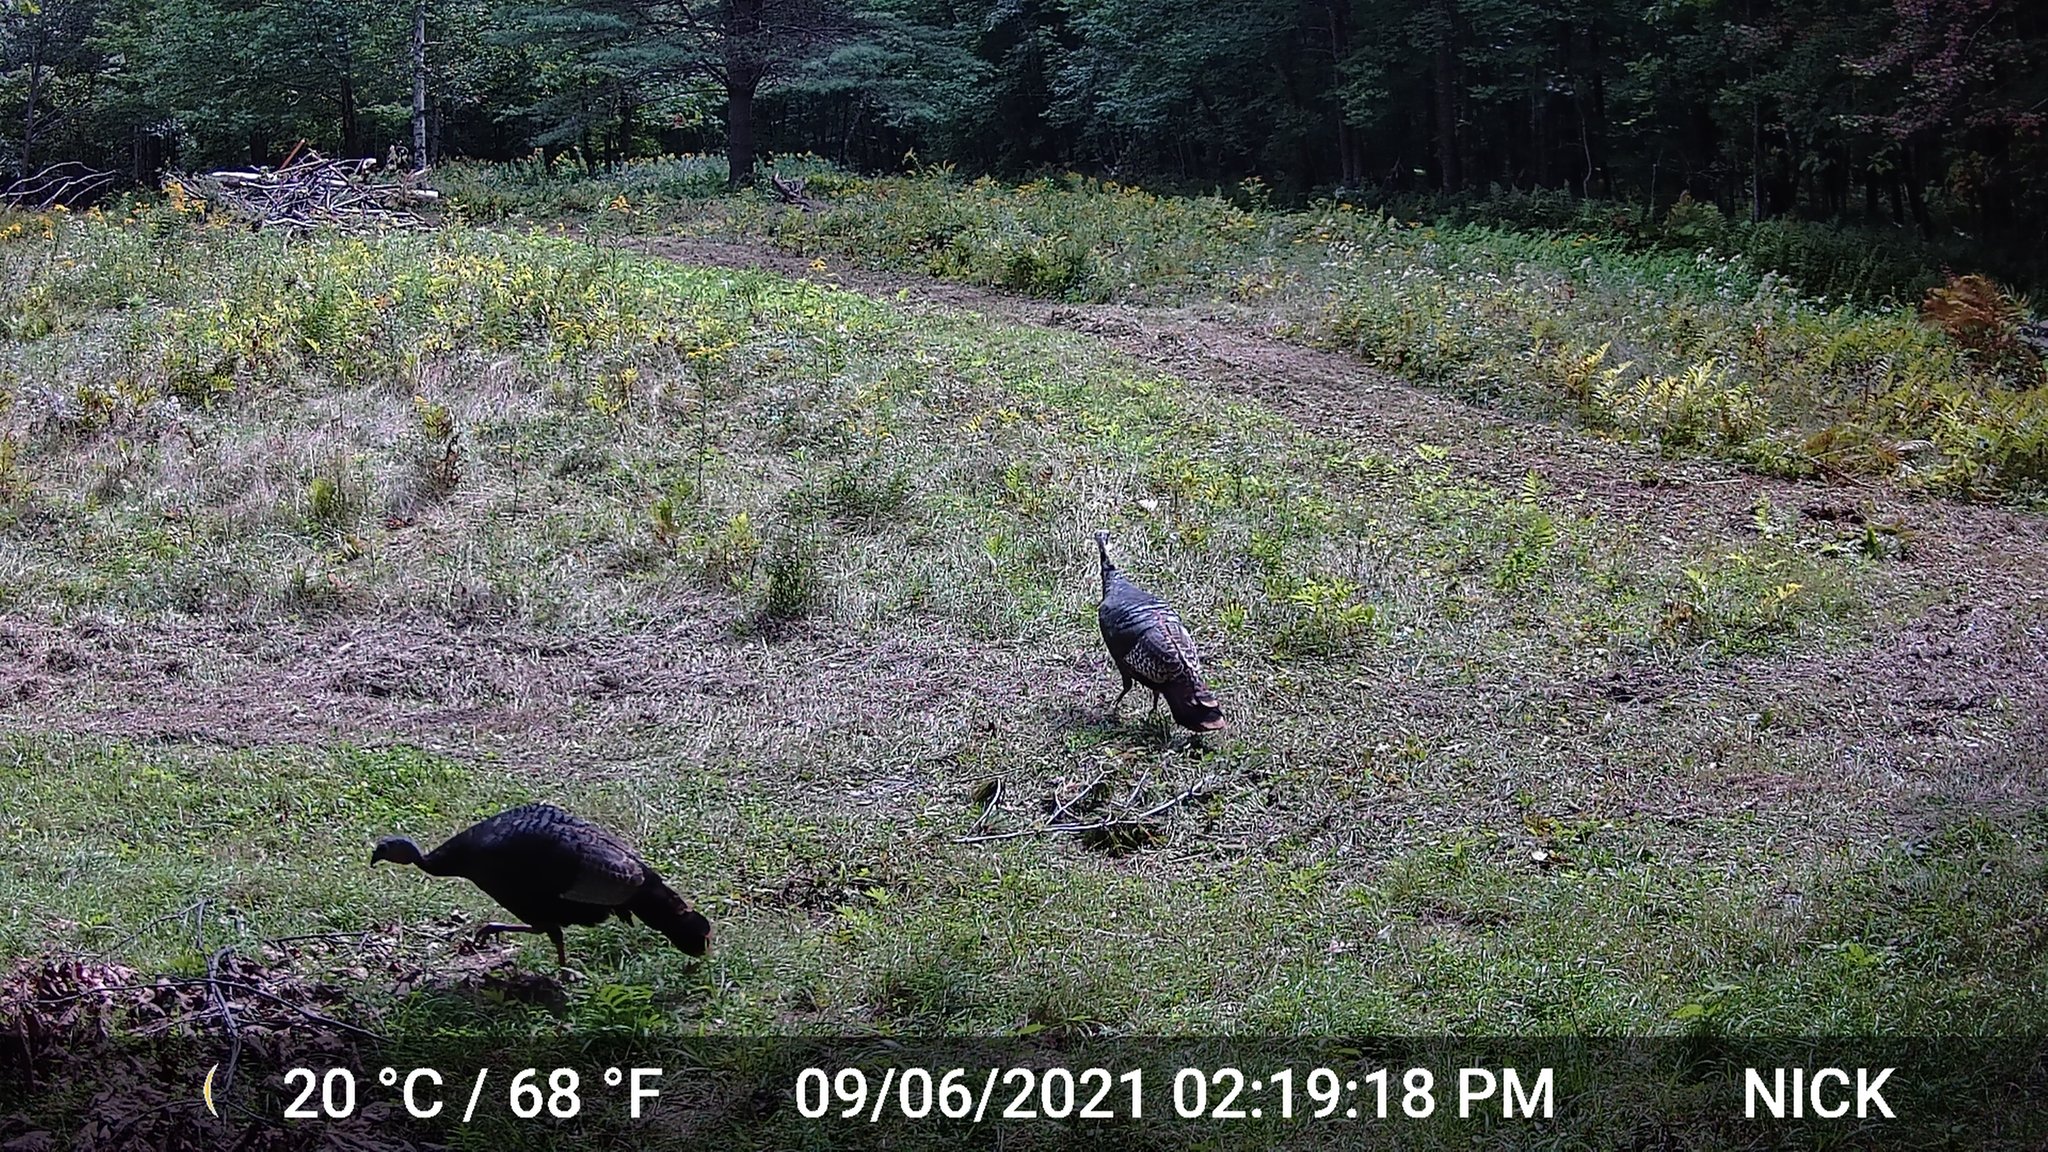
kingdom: Animalia
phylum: Chordata
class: Aves
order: Galliformes
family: Phasianidae
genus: Meleagris
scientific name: Meleagris gallopavo
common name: Wild turkey
